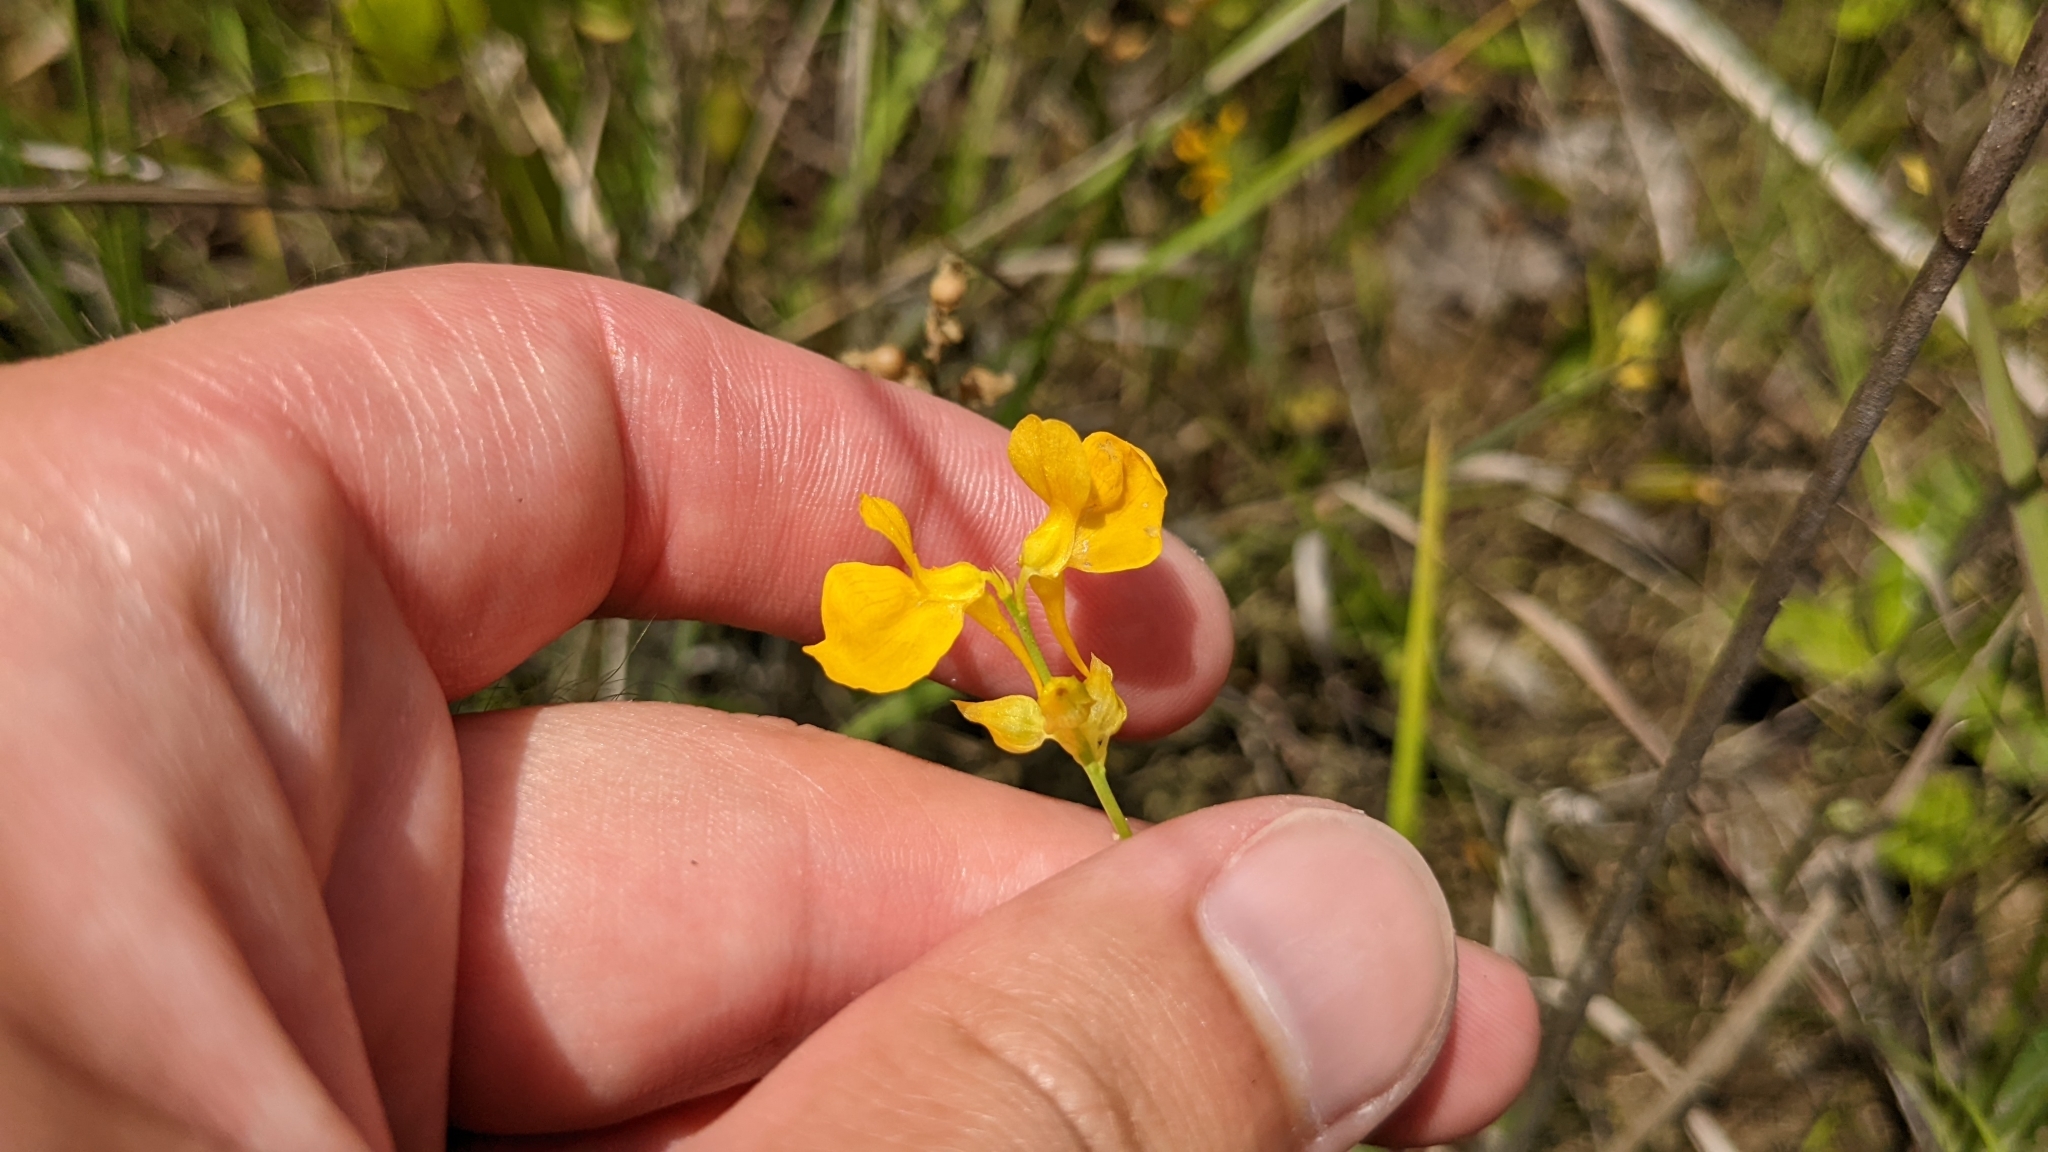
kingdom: Plantae
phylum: Tracheophyta
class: Magnoliopsida
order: Lamiales
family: Lentibulariaceae
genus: Utricularia
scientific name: Utricularia cornuta
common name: Horned bladderwort
